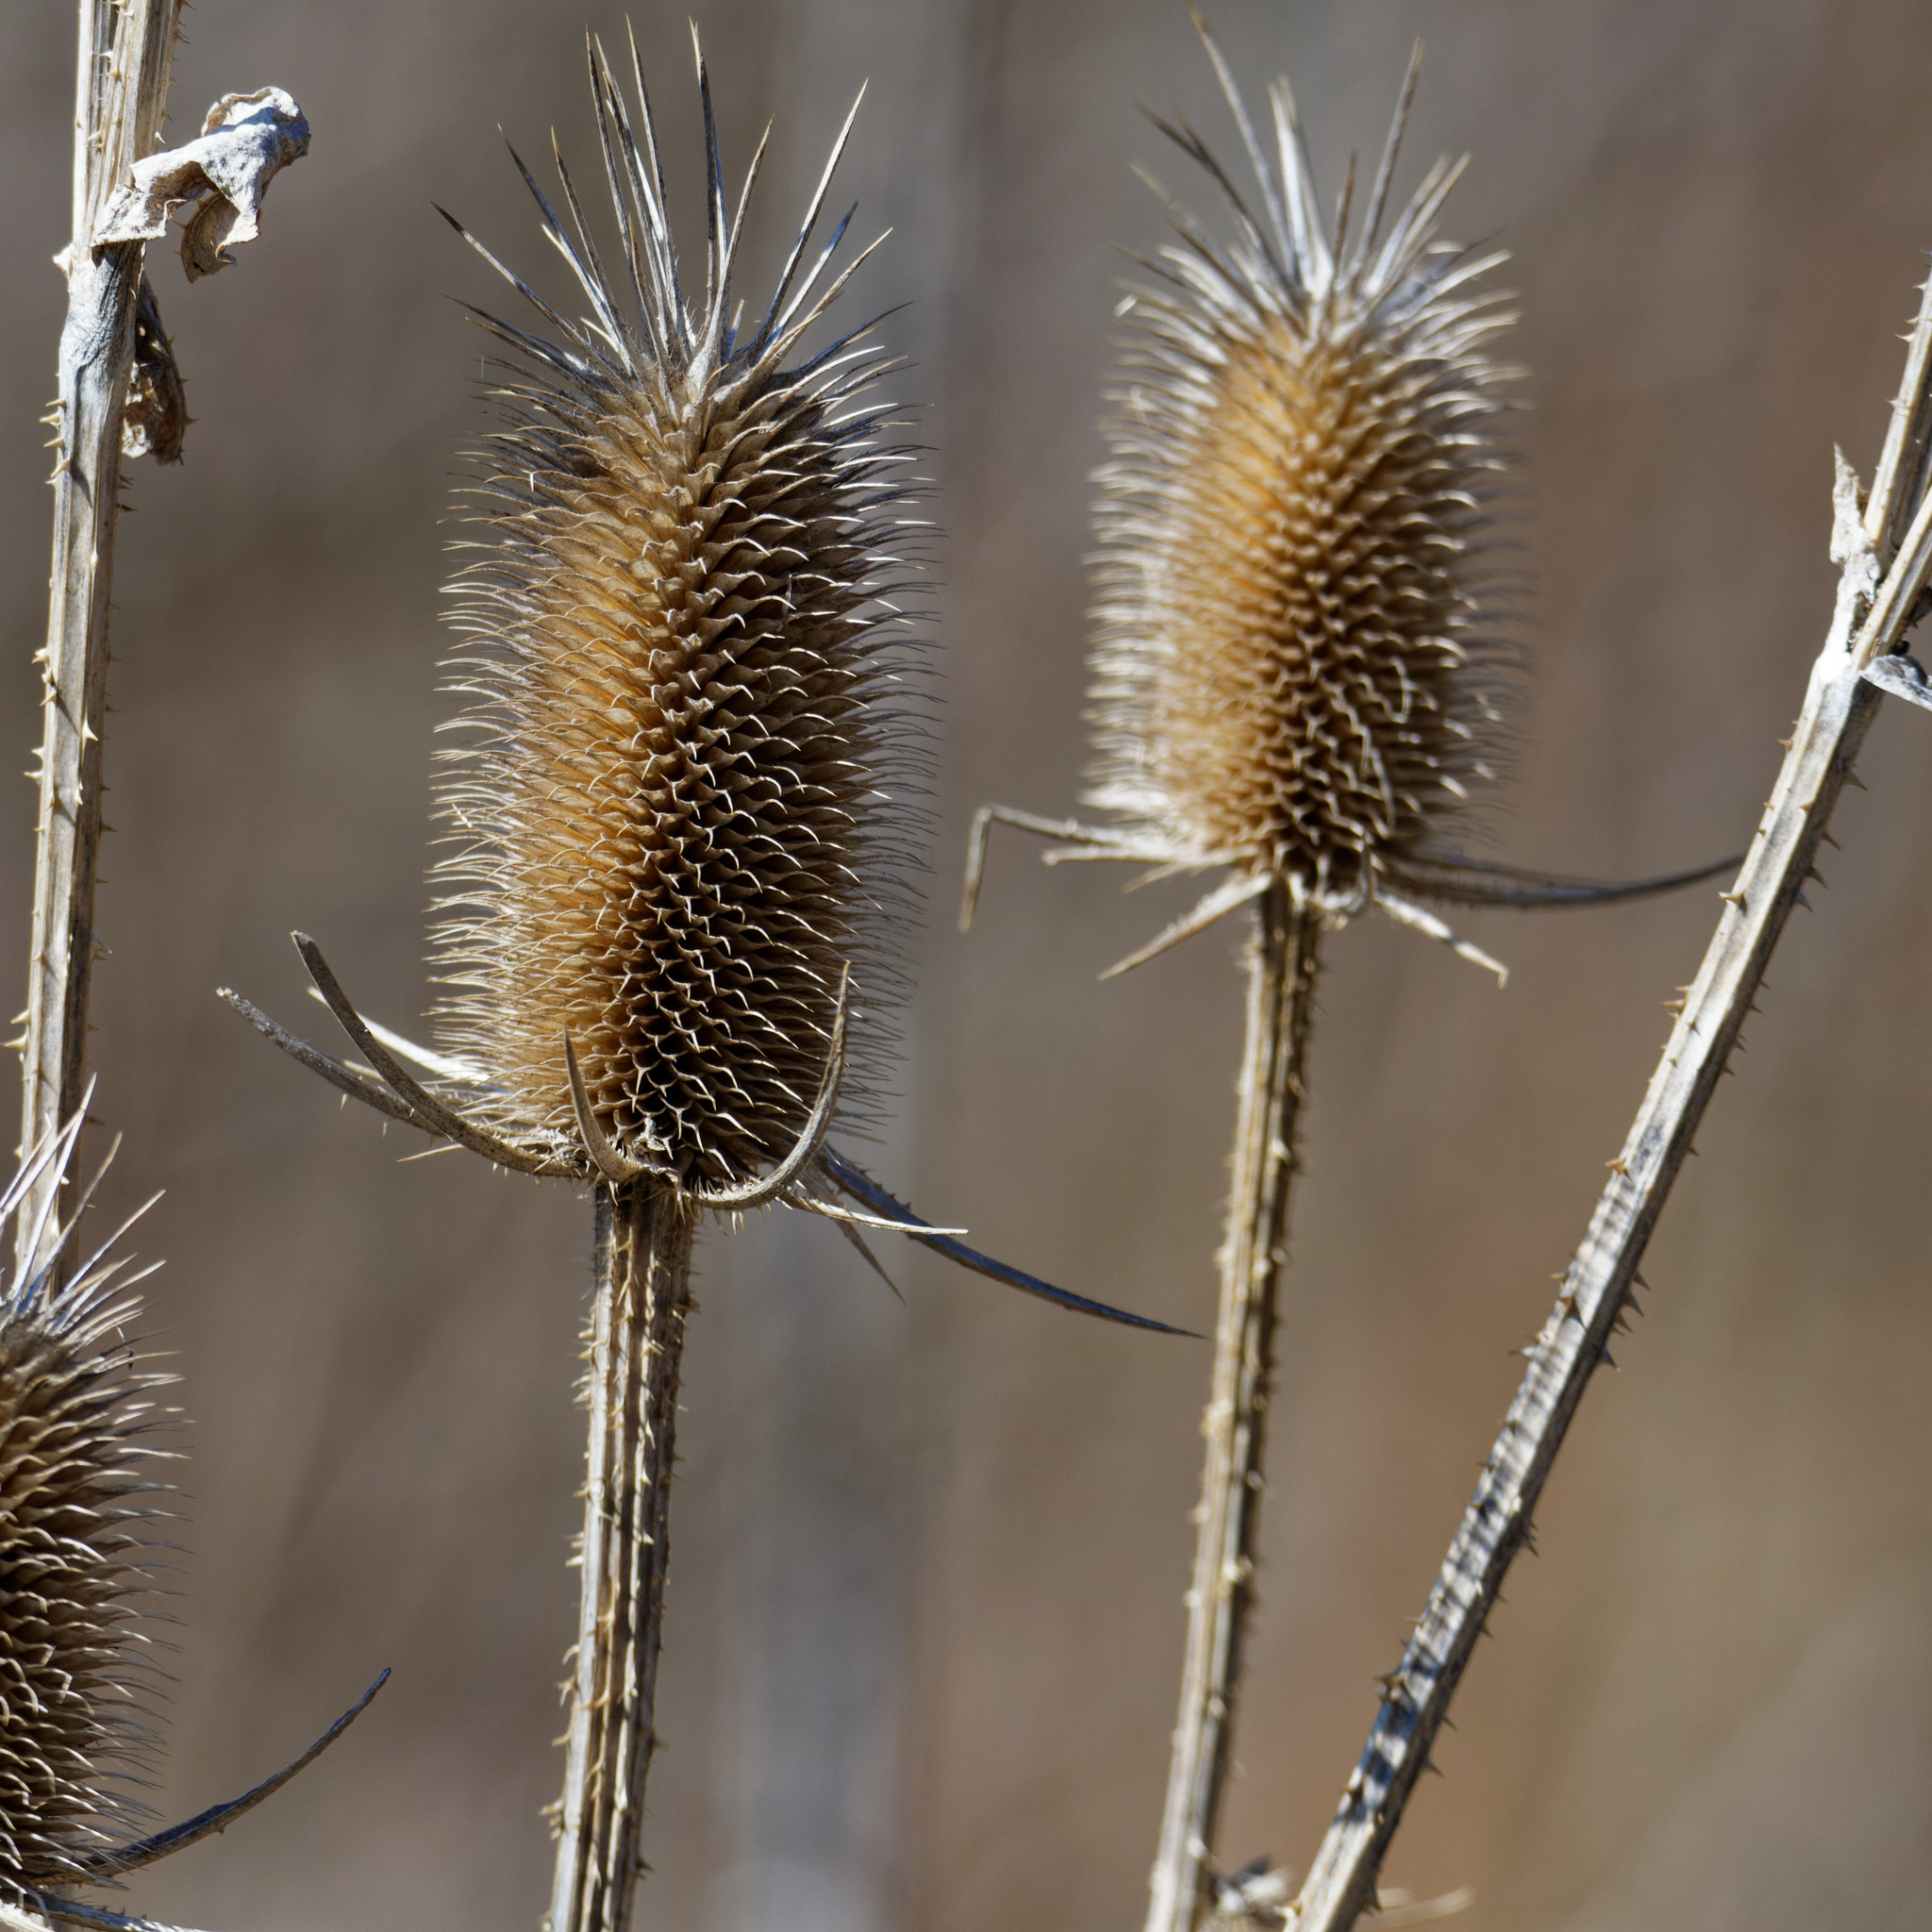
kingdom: Plantae
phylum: Tracheophyta
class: Magnoliopsida
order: Dipsacales
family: Caprifoliaceae
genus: Dipsacus
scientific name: Dipsacus laciniatus
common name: Cut-leaved teasel
